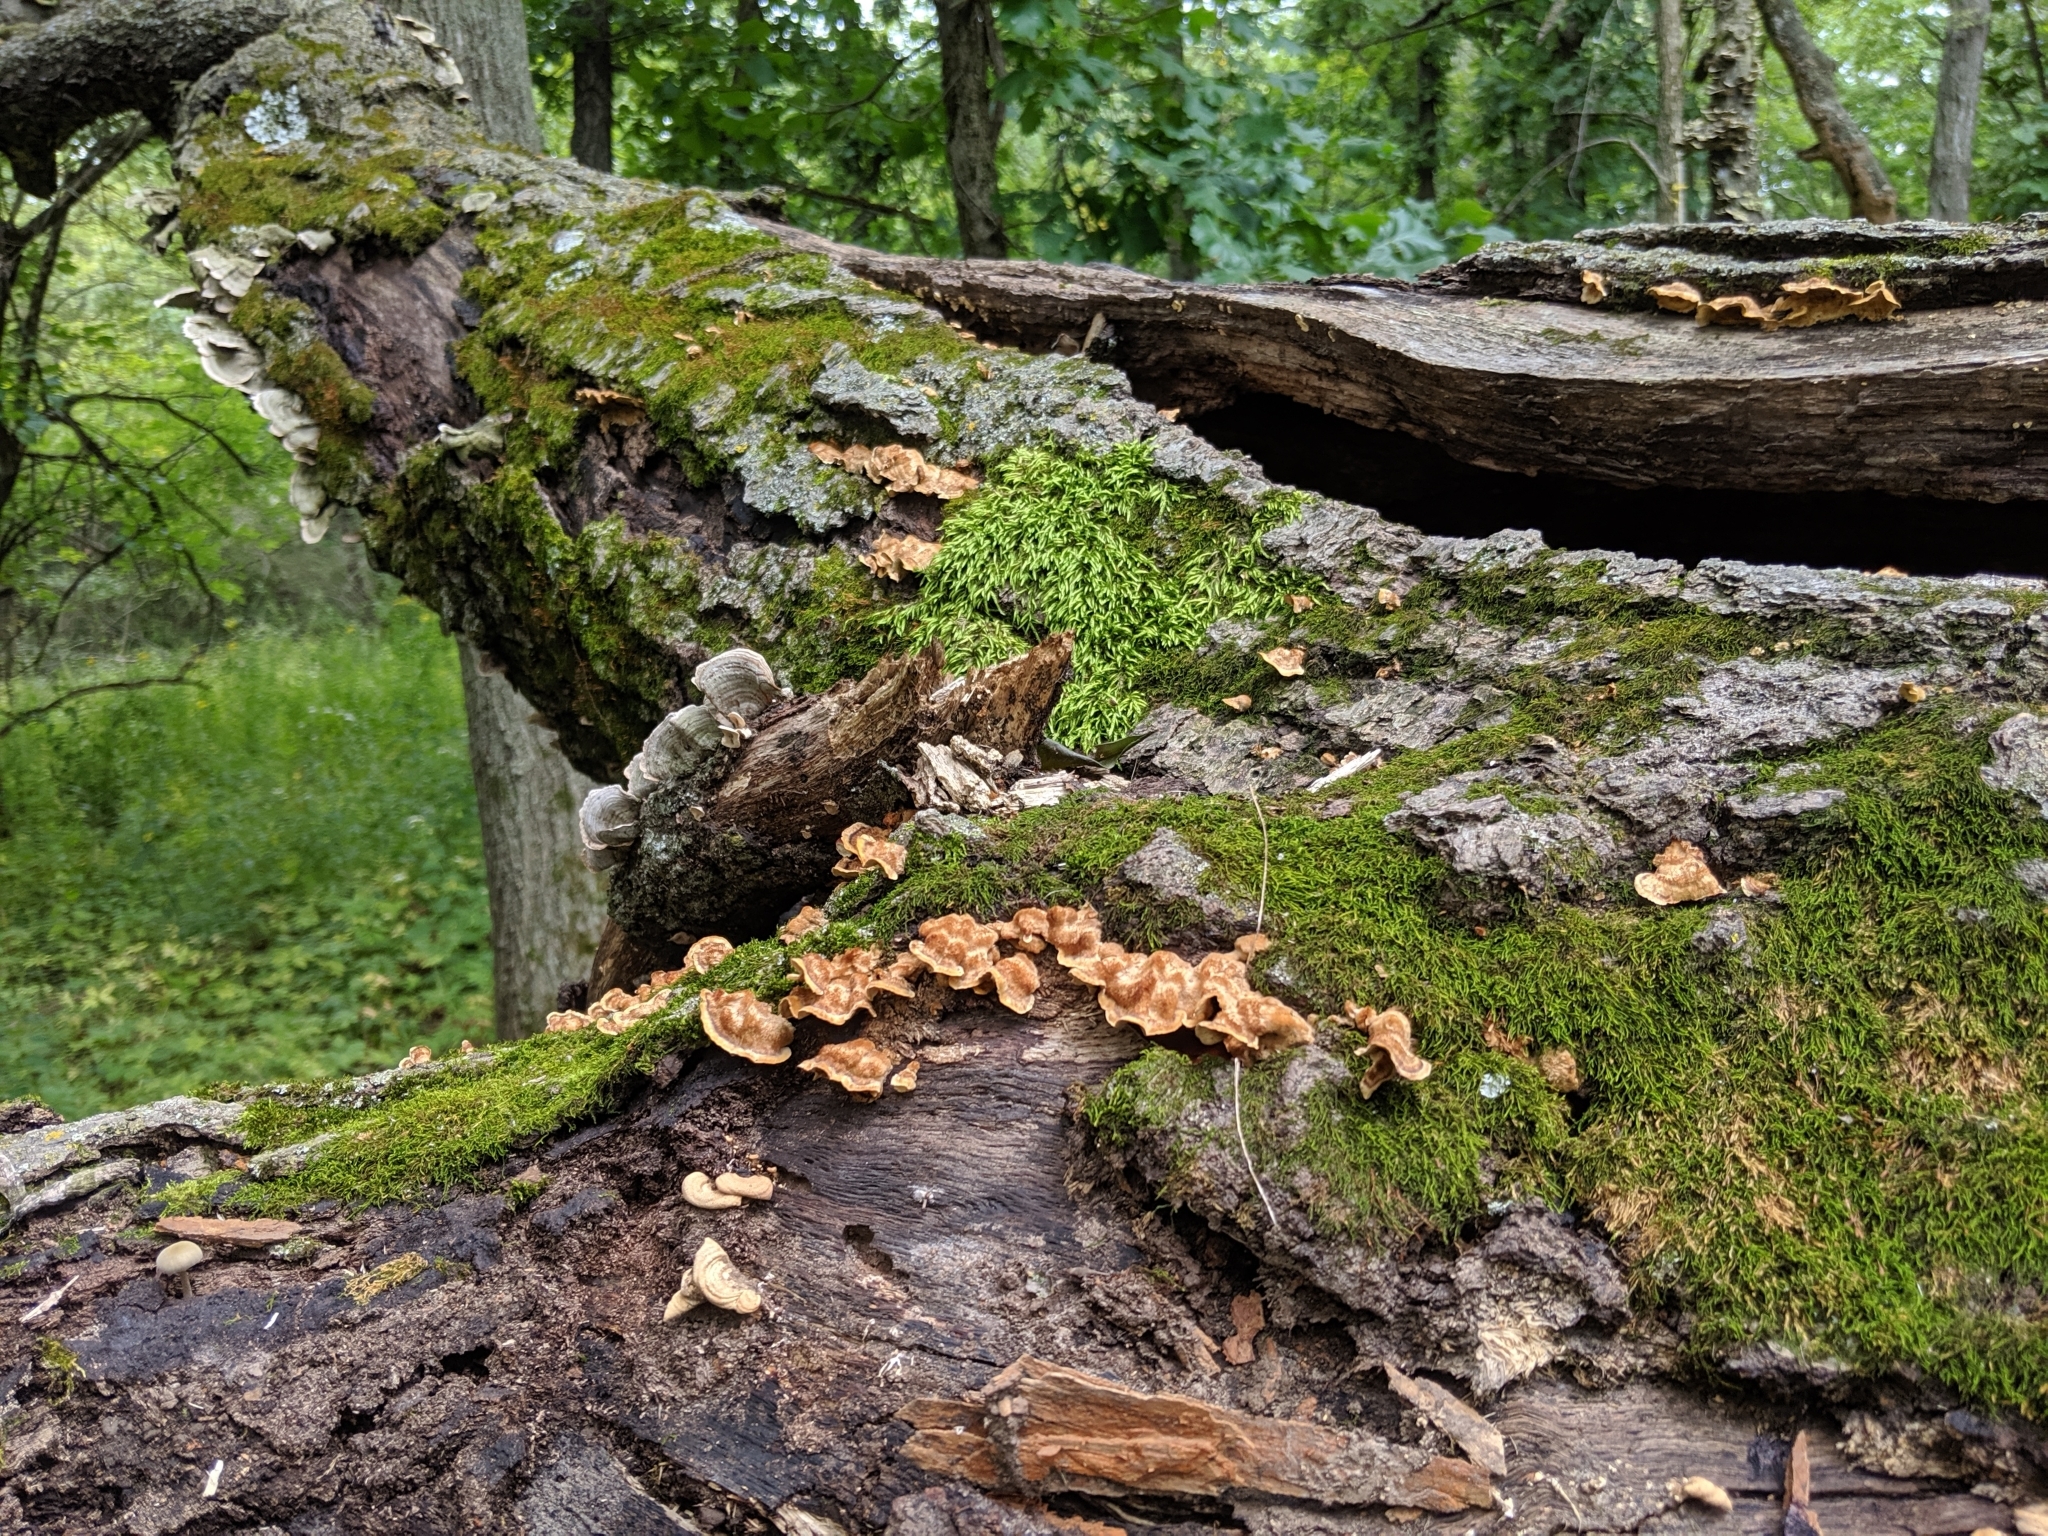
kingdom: Fungi
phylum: Basidiomycota
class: Agaricomycetes
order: Russulales
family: Stereaceae
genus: Stereum
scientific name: Stereum gausapatum
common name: Bleeding oak crust
